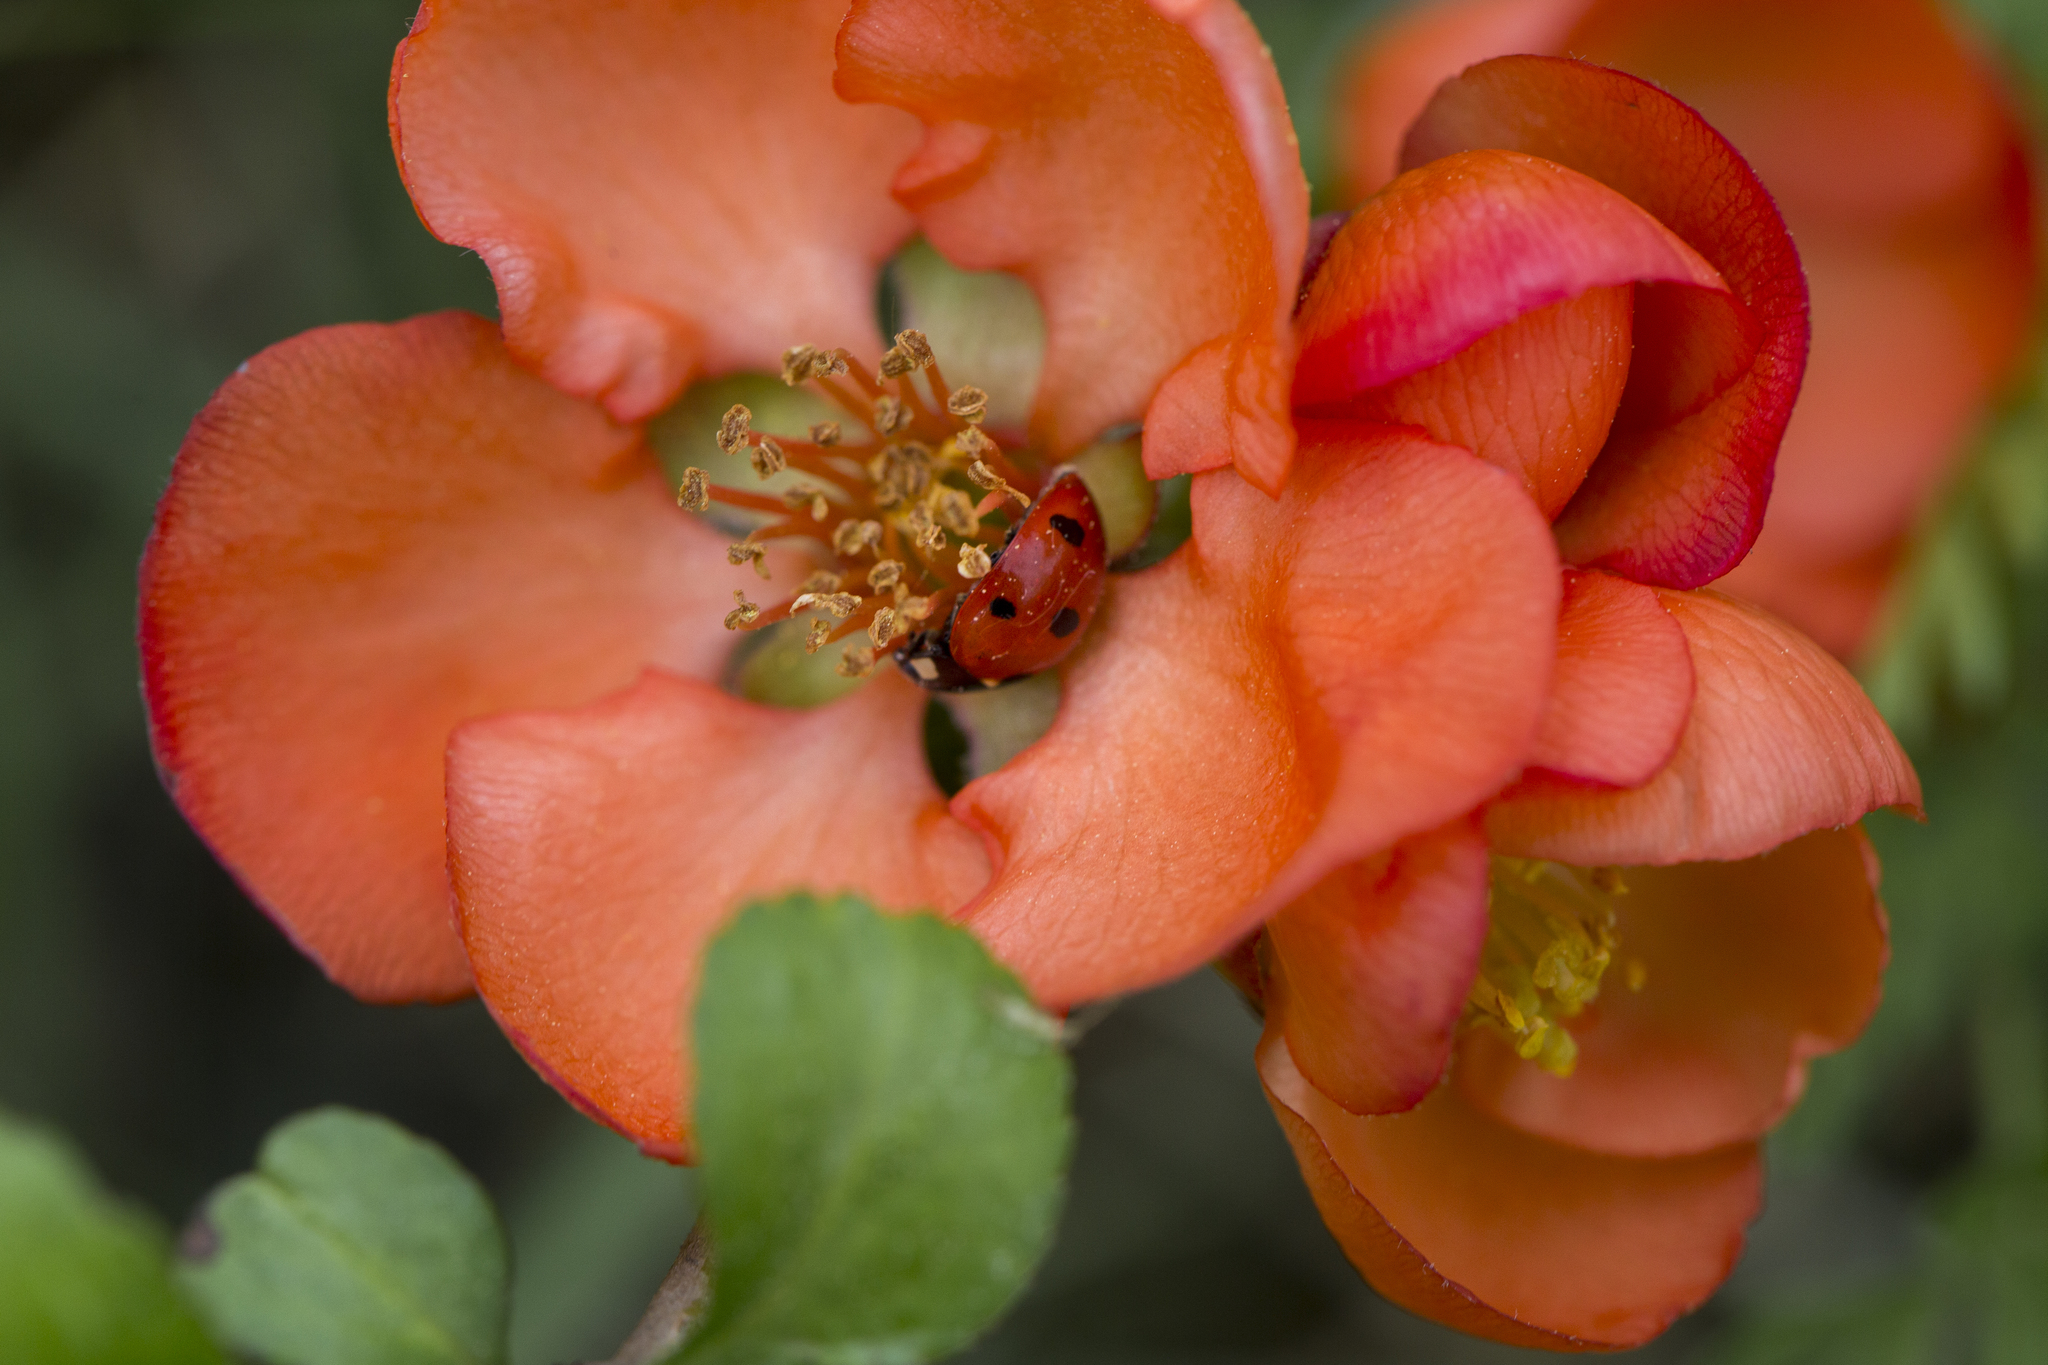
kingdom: Animalia
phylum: Arthropoda
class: Insecta
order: Coleoptera
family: Coccinellidae
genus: Coccinella
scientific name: Coccinella septempunctata
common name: Sevenspotted lady beetle
